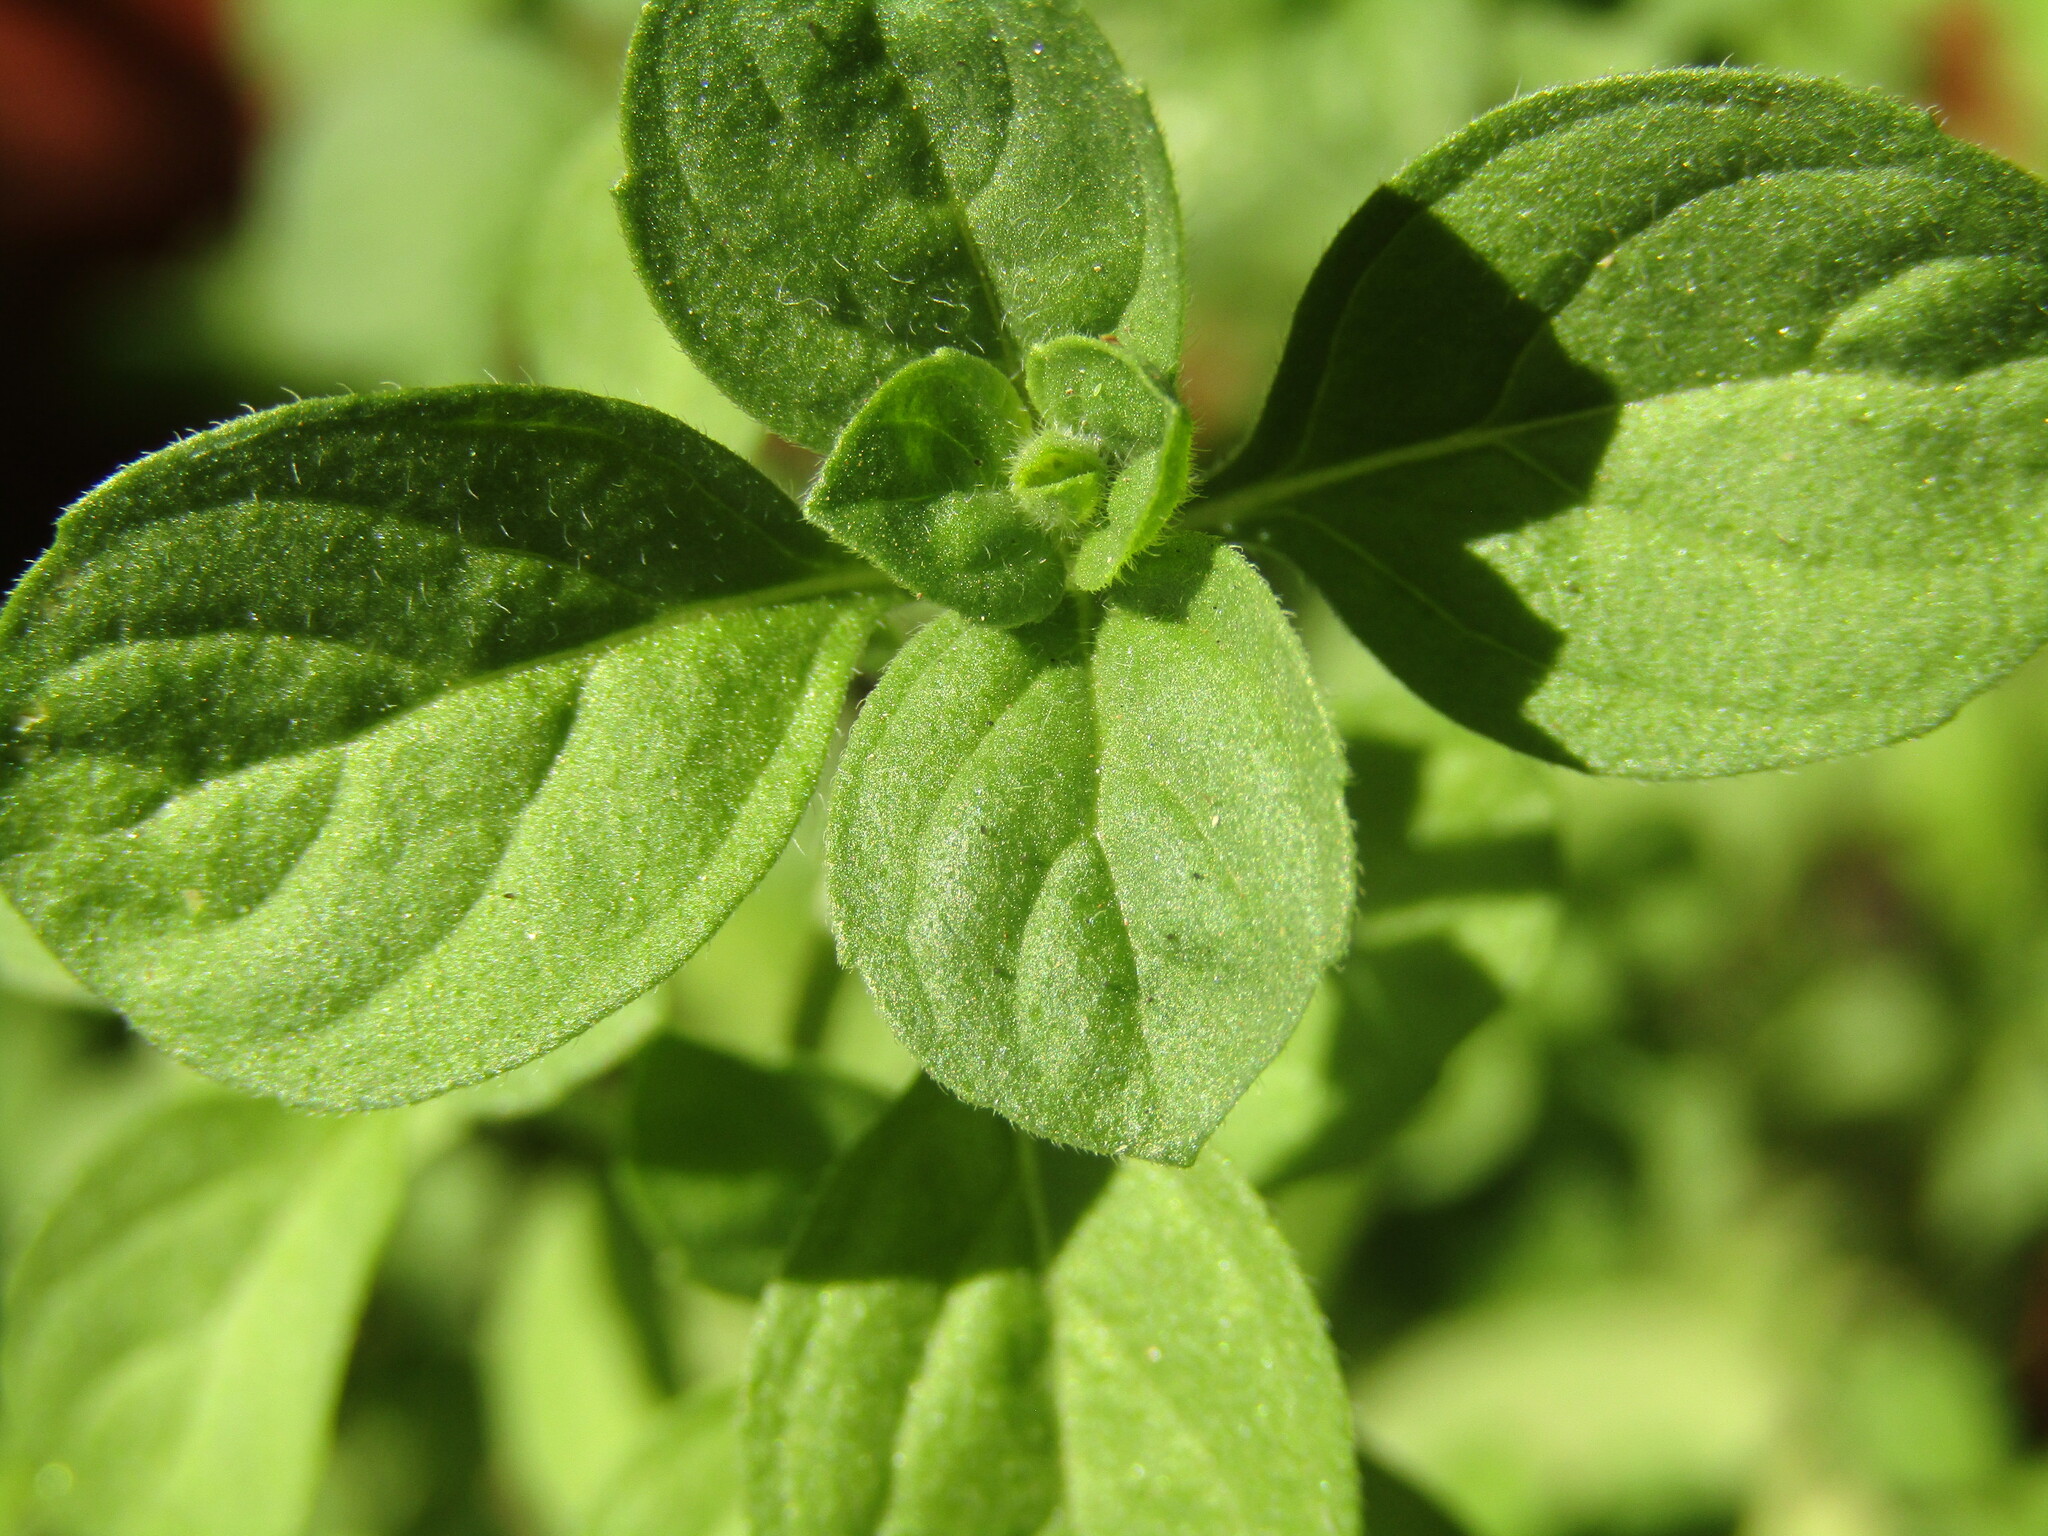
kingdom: Plantae
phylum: Tracheophyta
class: Magnoliopsida
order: Lamiales
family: Lamiaceae
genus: Mentha
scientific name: Mentha pulegium
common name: Pennyroyal
